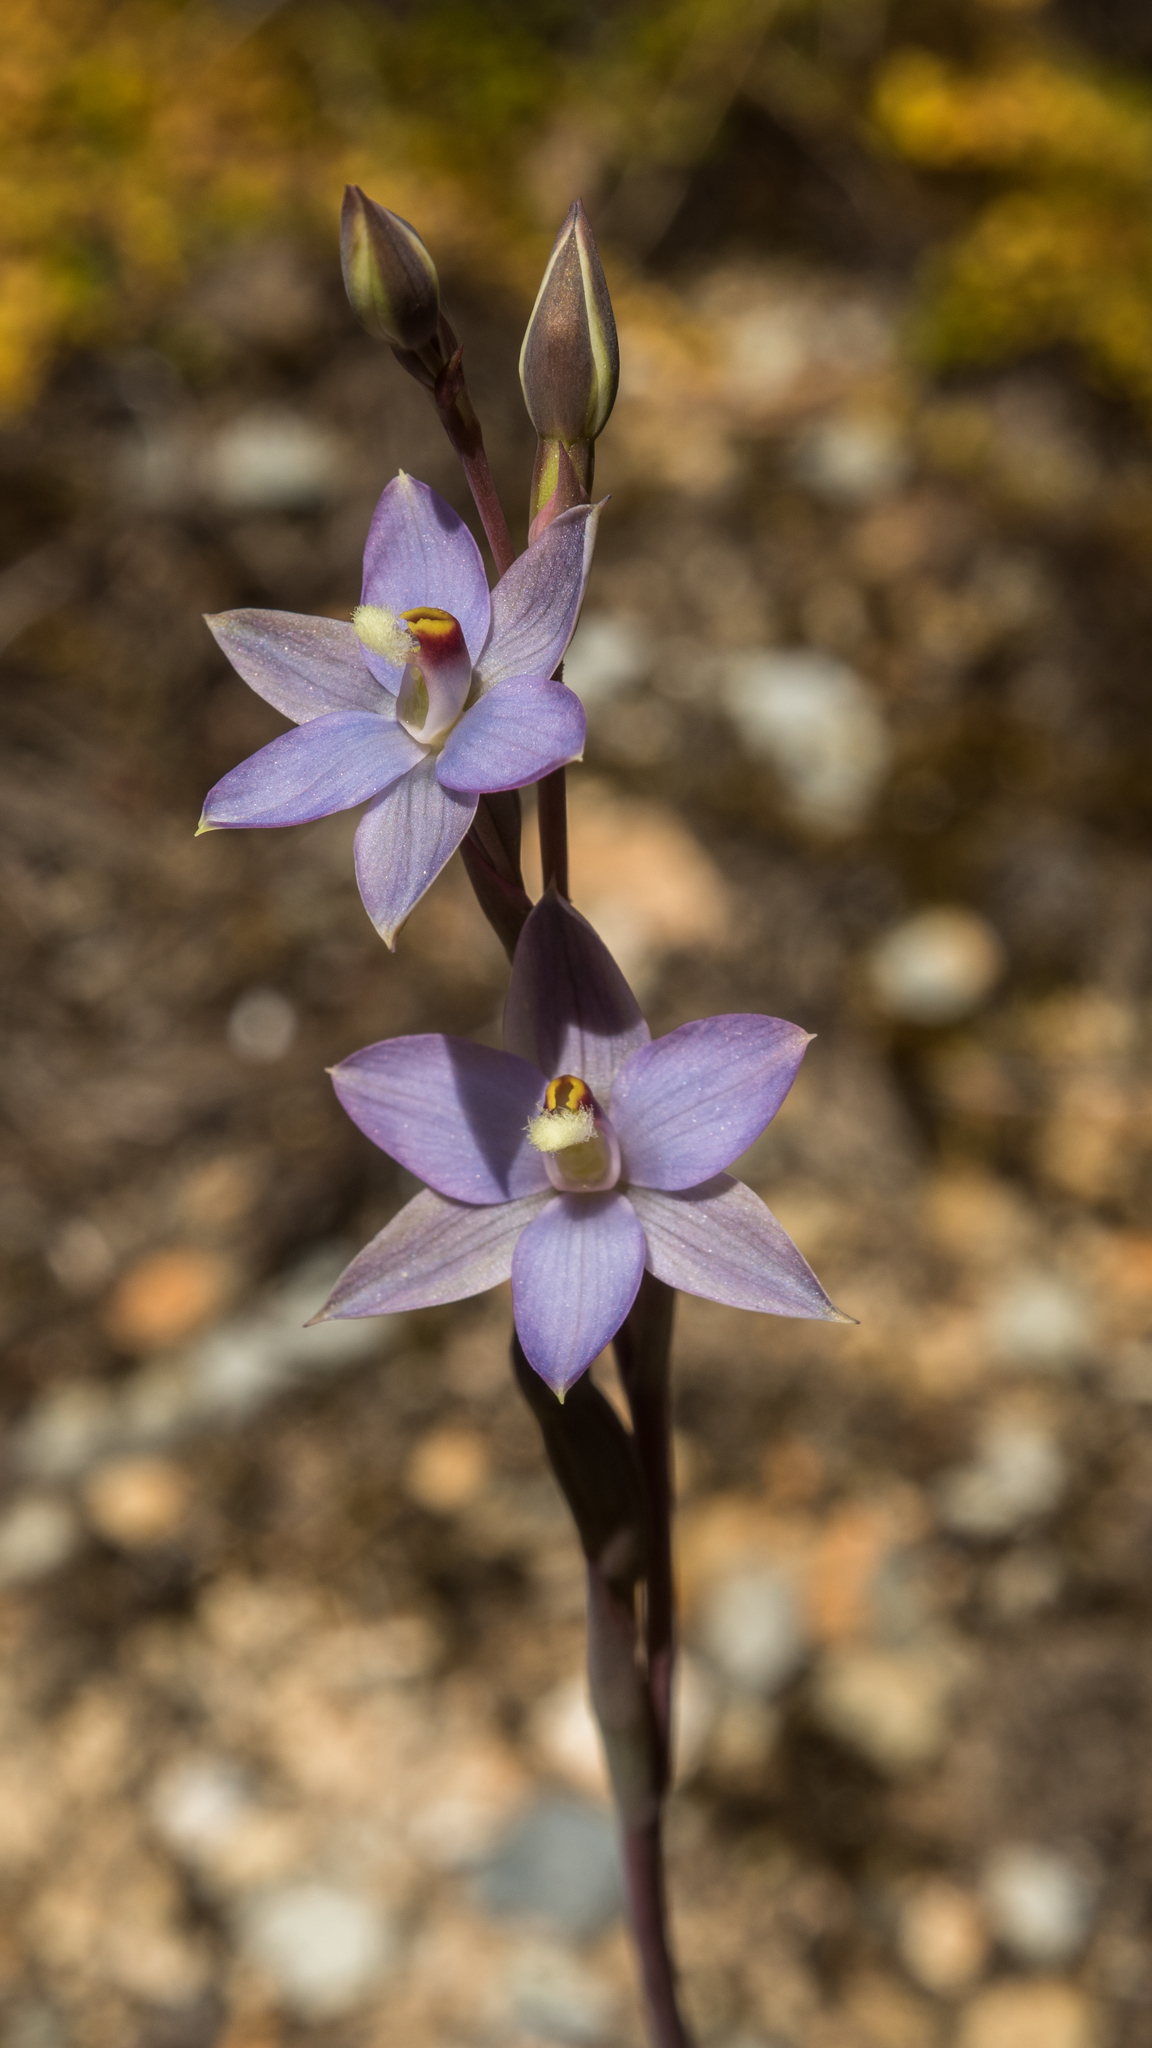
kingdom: Plantae
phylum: Tracheophyta
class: Liliopsida
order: Asparagales
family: Orchidaceae
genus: Thelymitra
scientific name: Thelymitra hatchii
